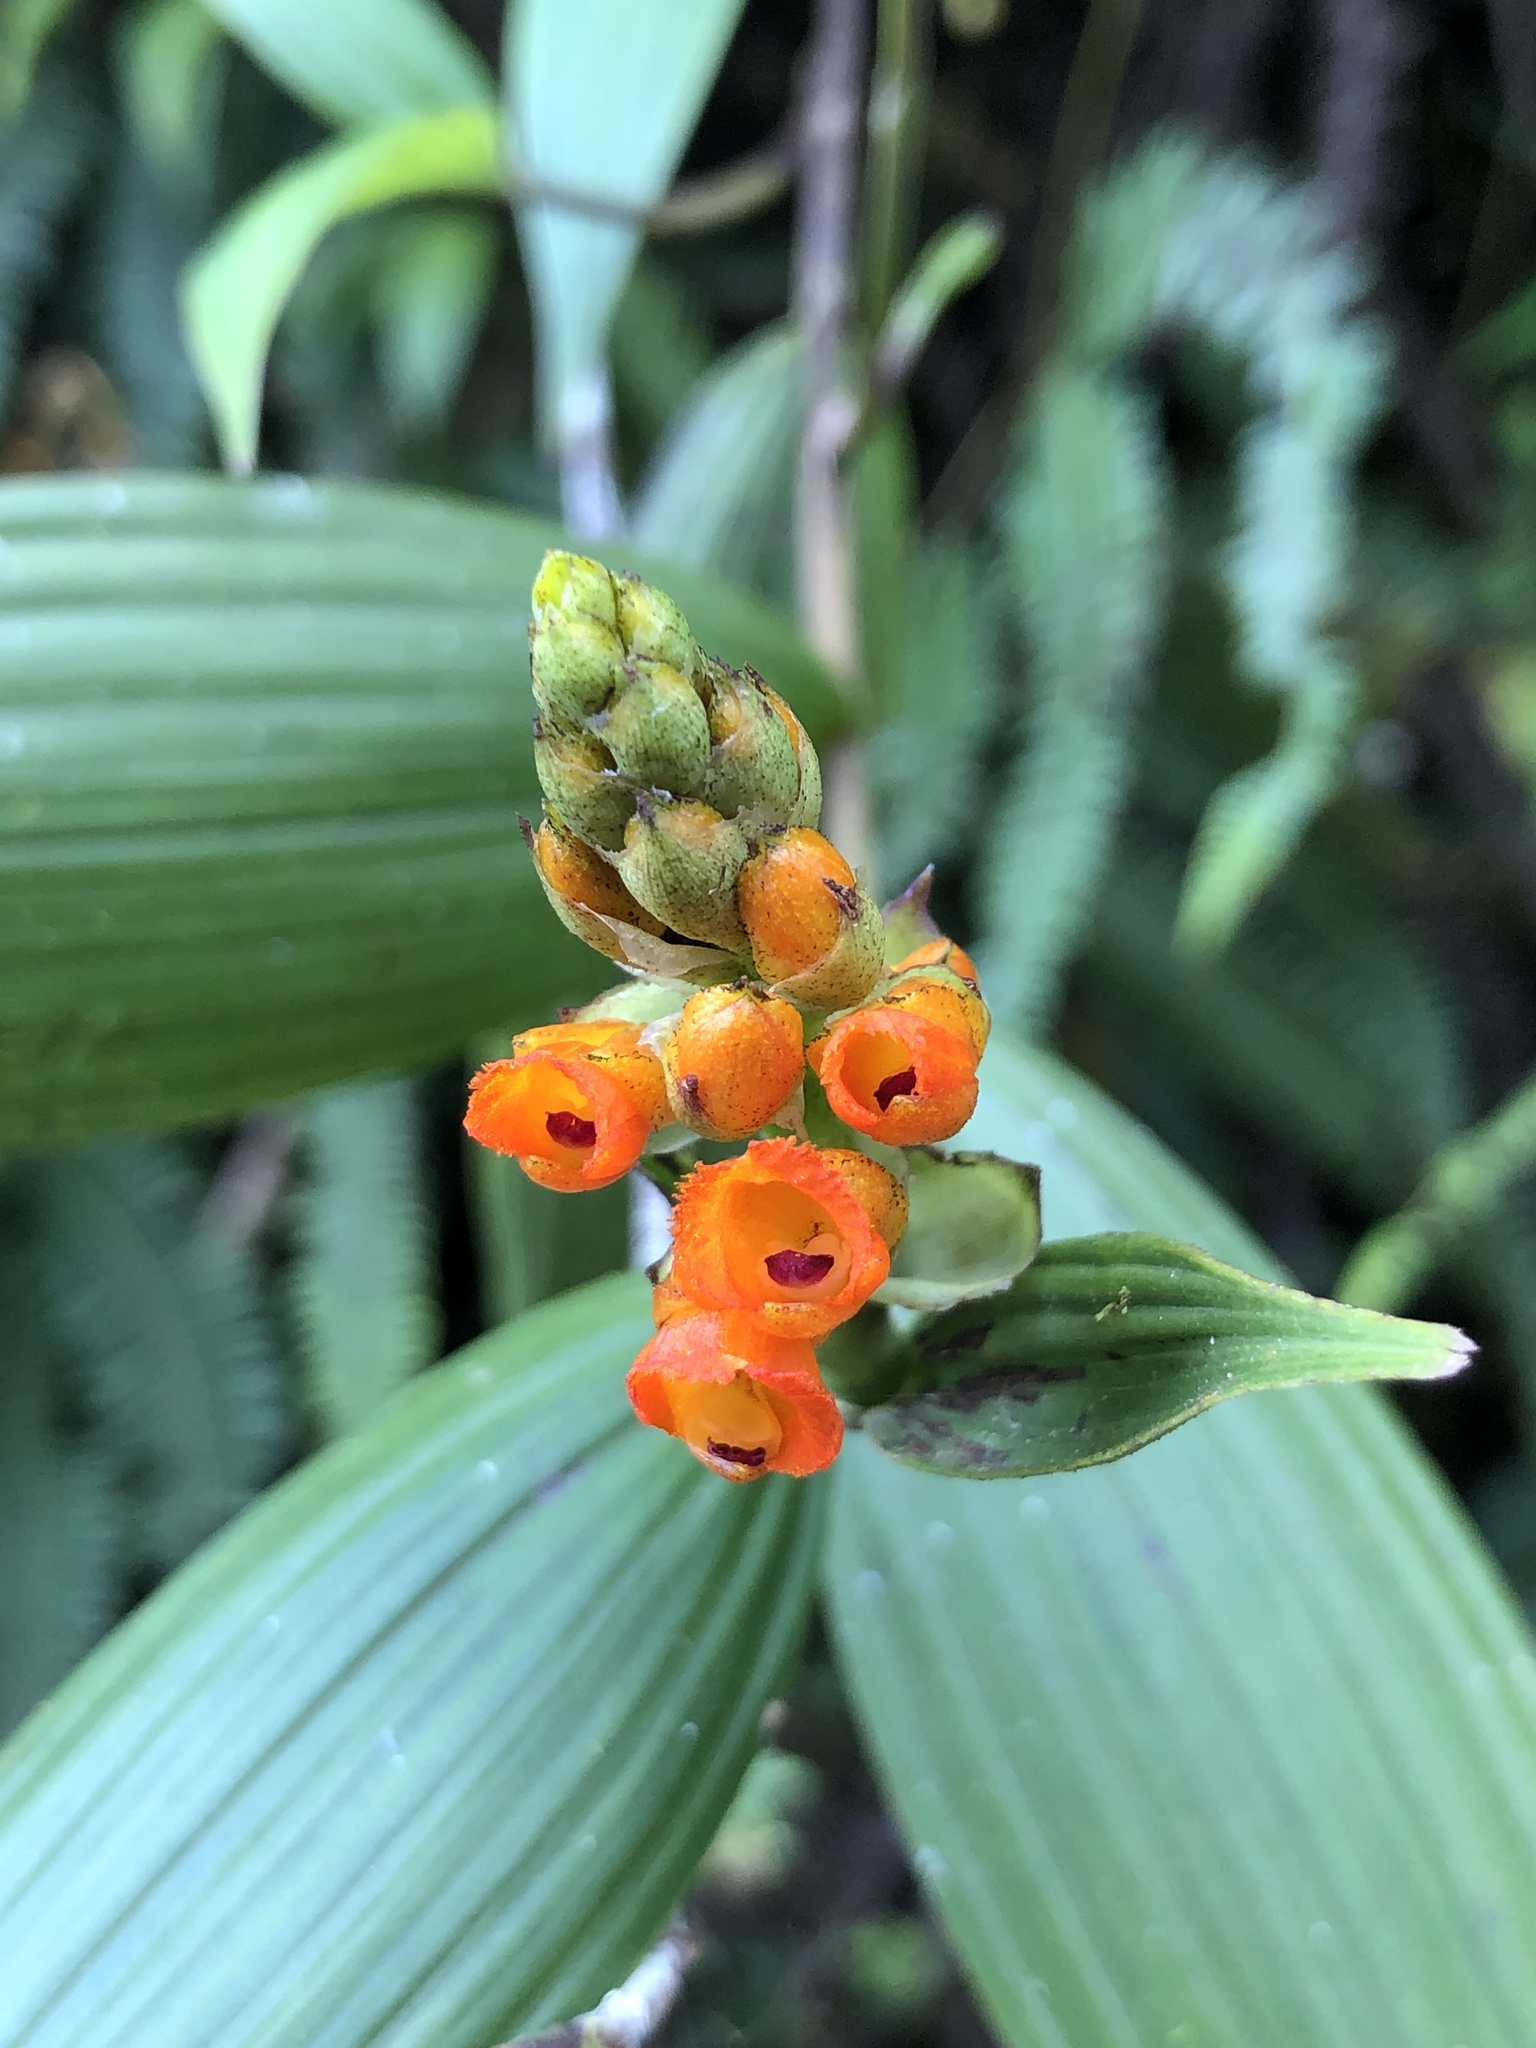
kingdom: Plantae
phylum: Tracheophyta
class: Liliopsida
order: Asparagales
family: Orchidaceae
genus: Elleanthus
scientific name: Elleanthus aurantiacus
